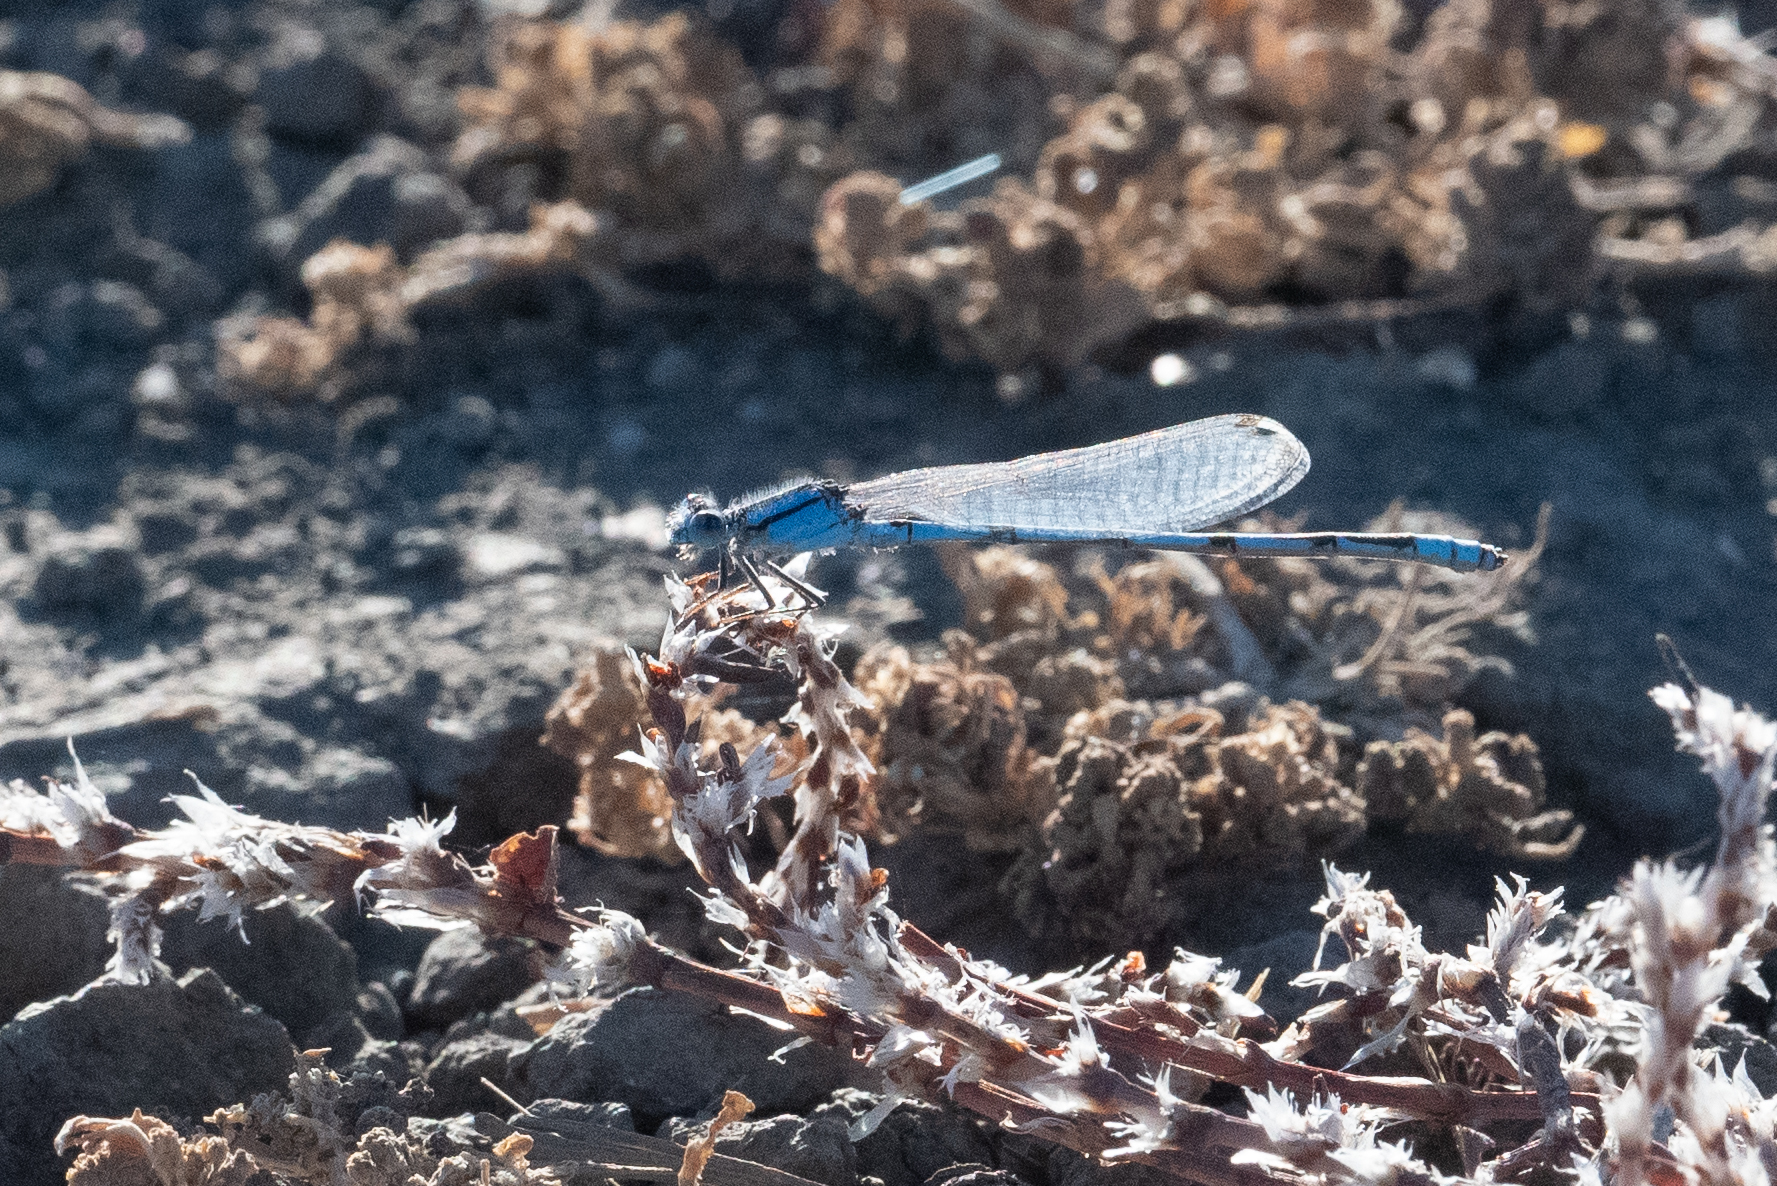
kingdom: Animalia
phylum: Arthropoda
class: Insecta
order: Odonata
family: Coenagrionidae
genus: Enallagma
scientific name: Enallagma civile
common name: Damselfly
